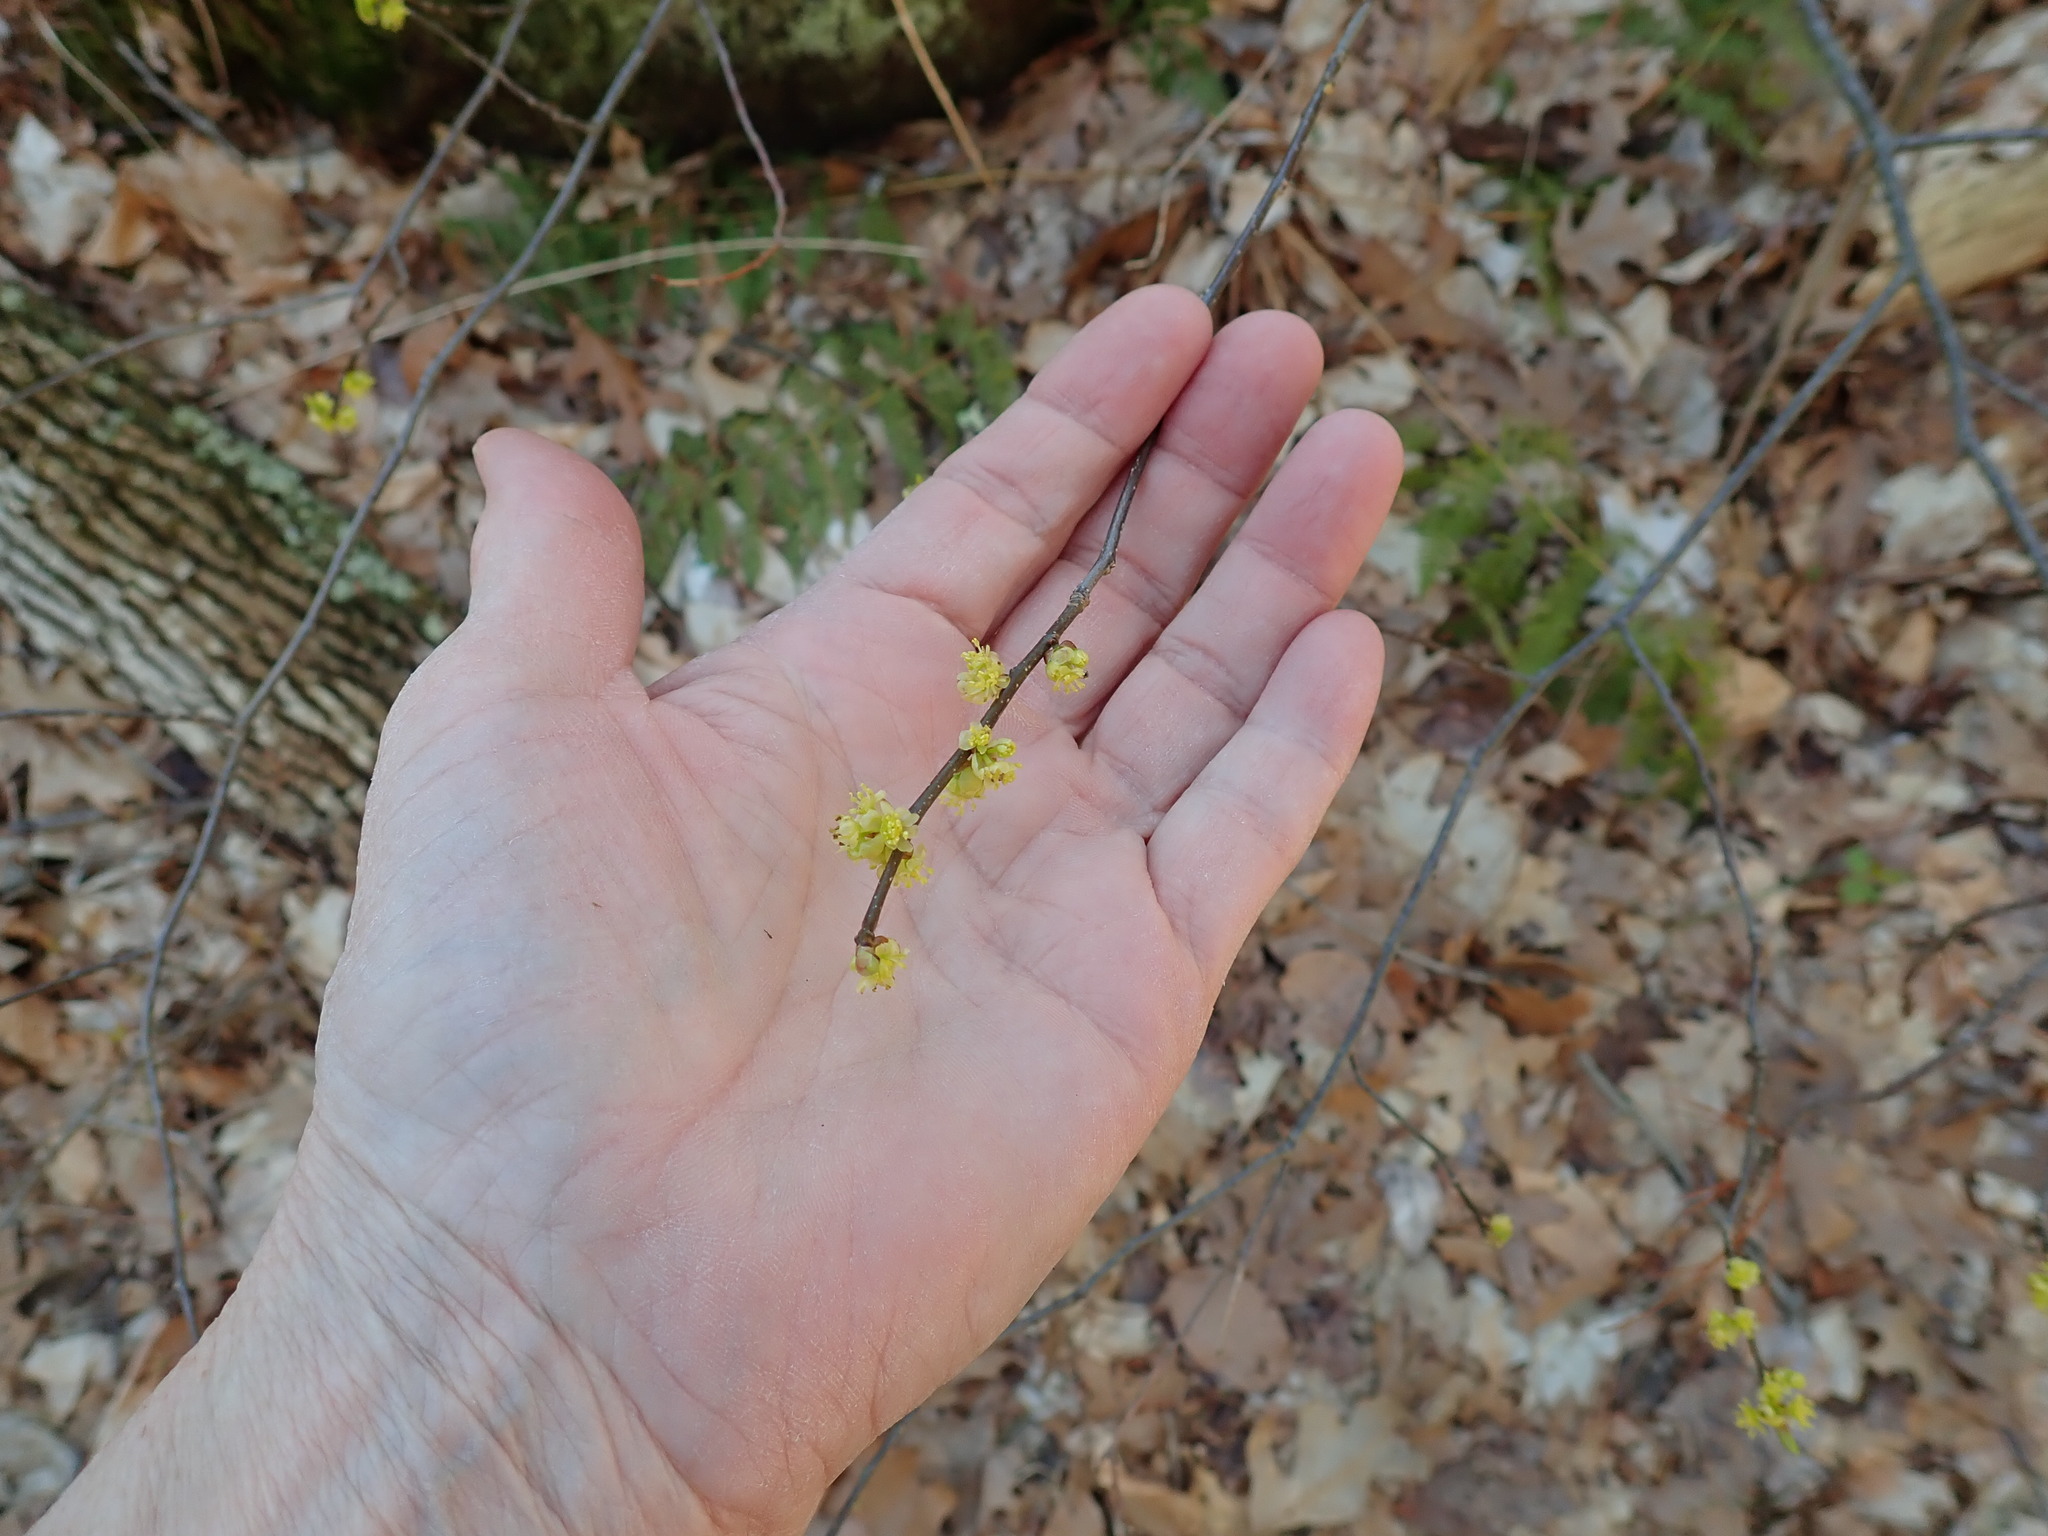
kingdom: Plantae
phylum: Tracheophyta
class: Magnoliopsida
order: Laurales
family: Lauraceae
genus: Lindera
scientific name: Lindera benzoin
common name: Spicebush
